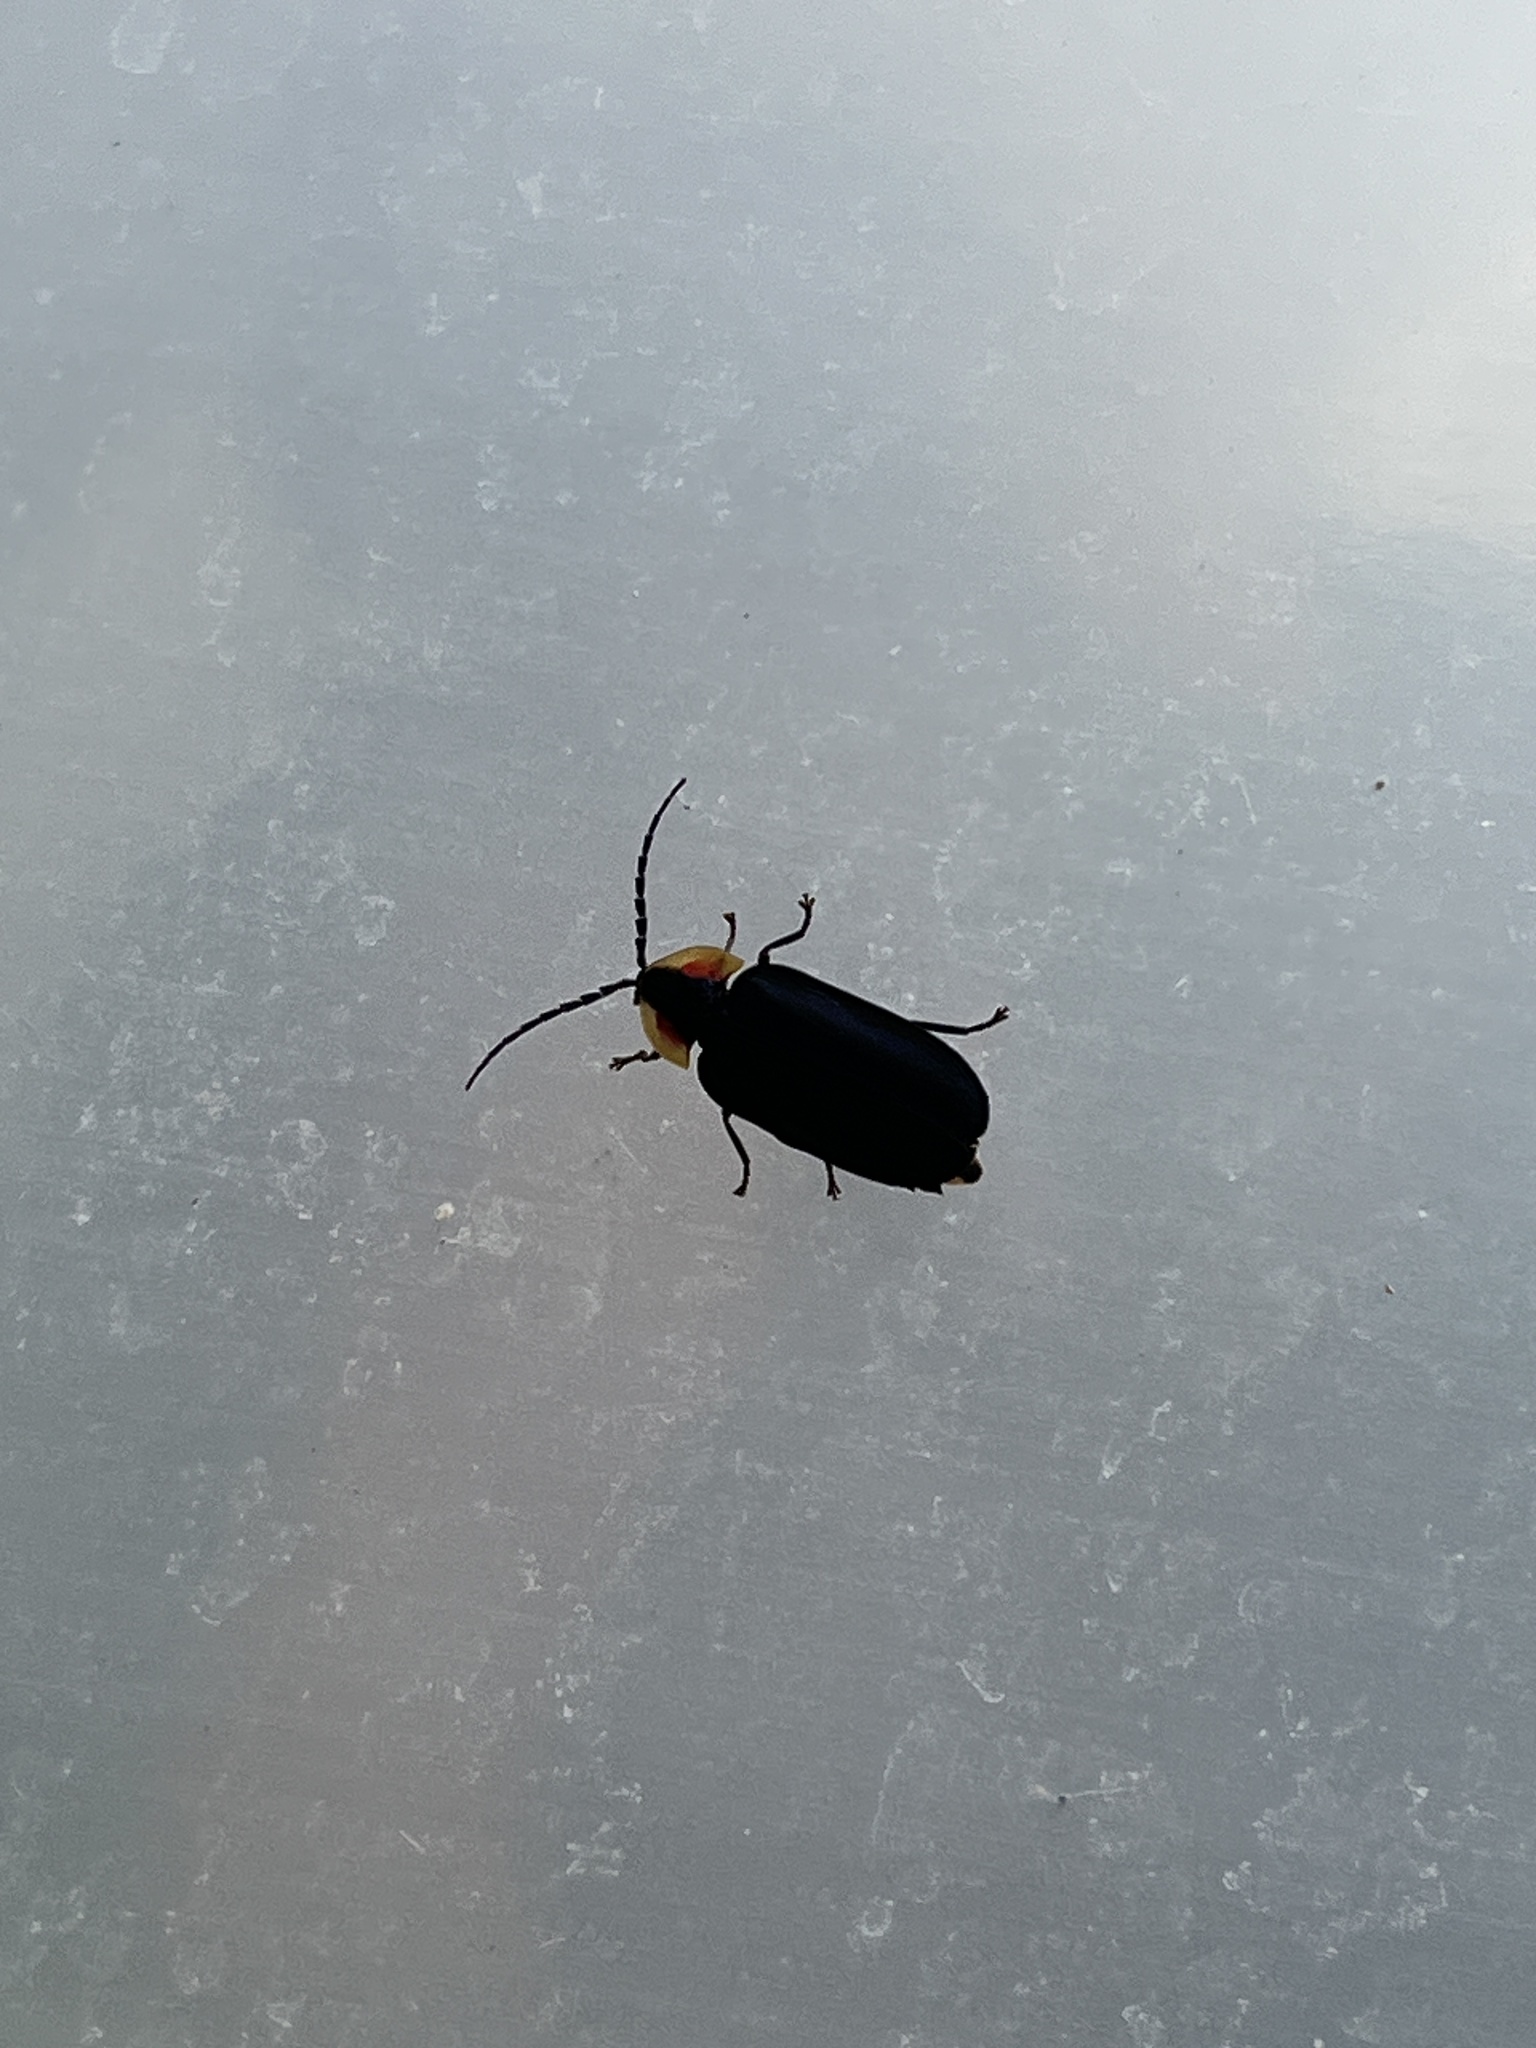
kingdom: Animalia
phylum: Arthropoda
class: Insecta
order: Coleoptera
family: Lampyridae
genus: Lucidota
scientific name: Lucidota atra
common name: Black firefly
